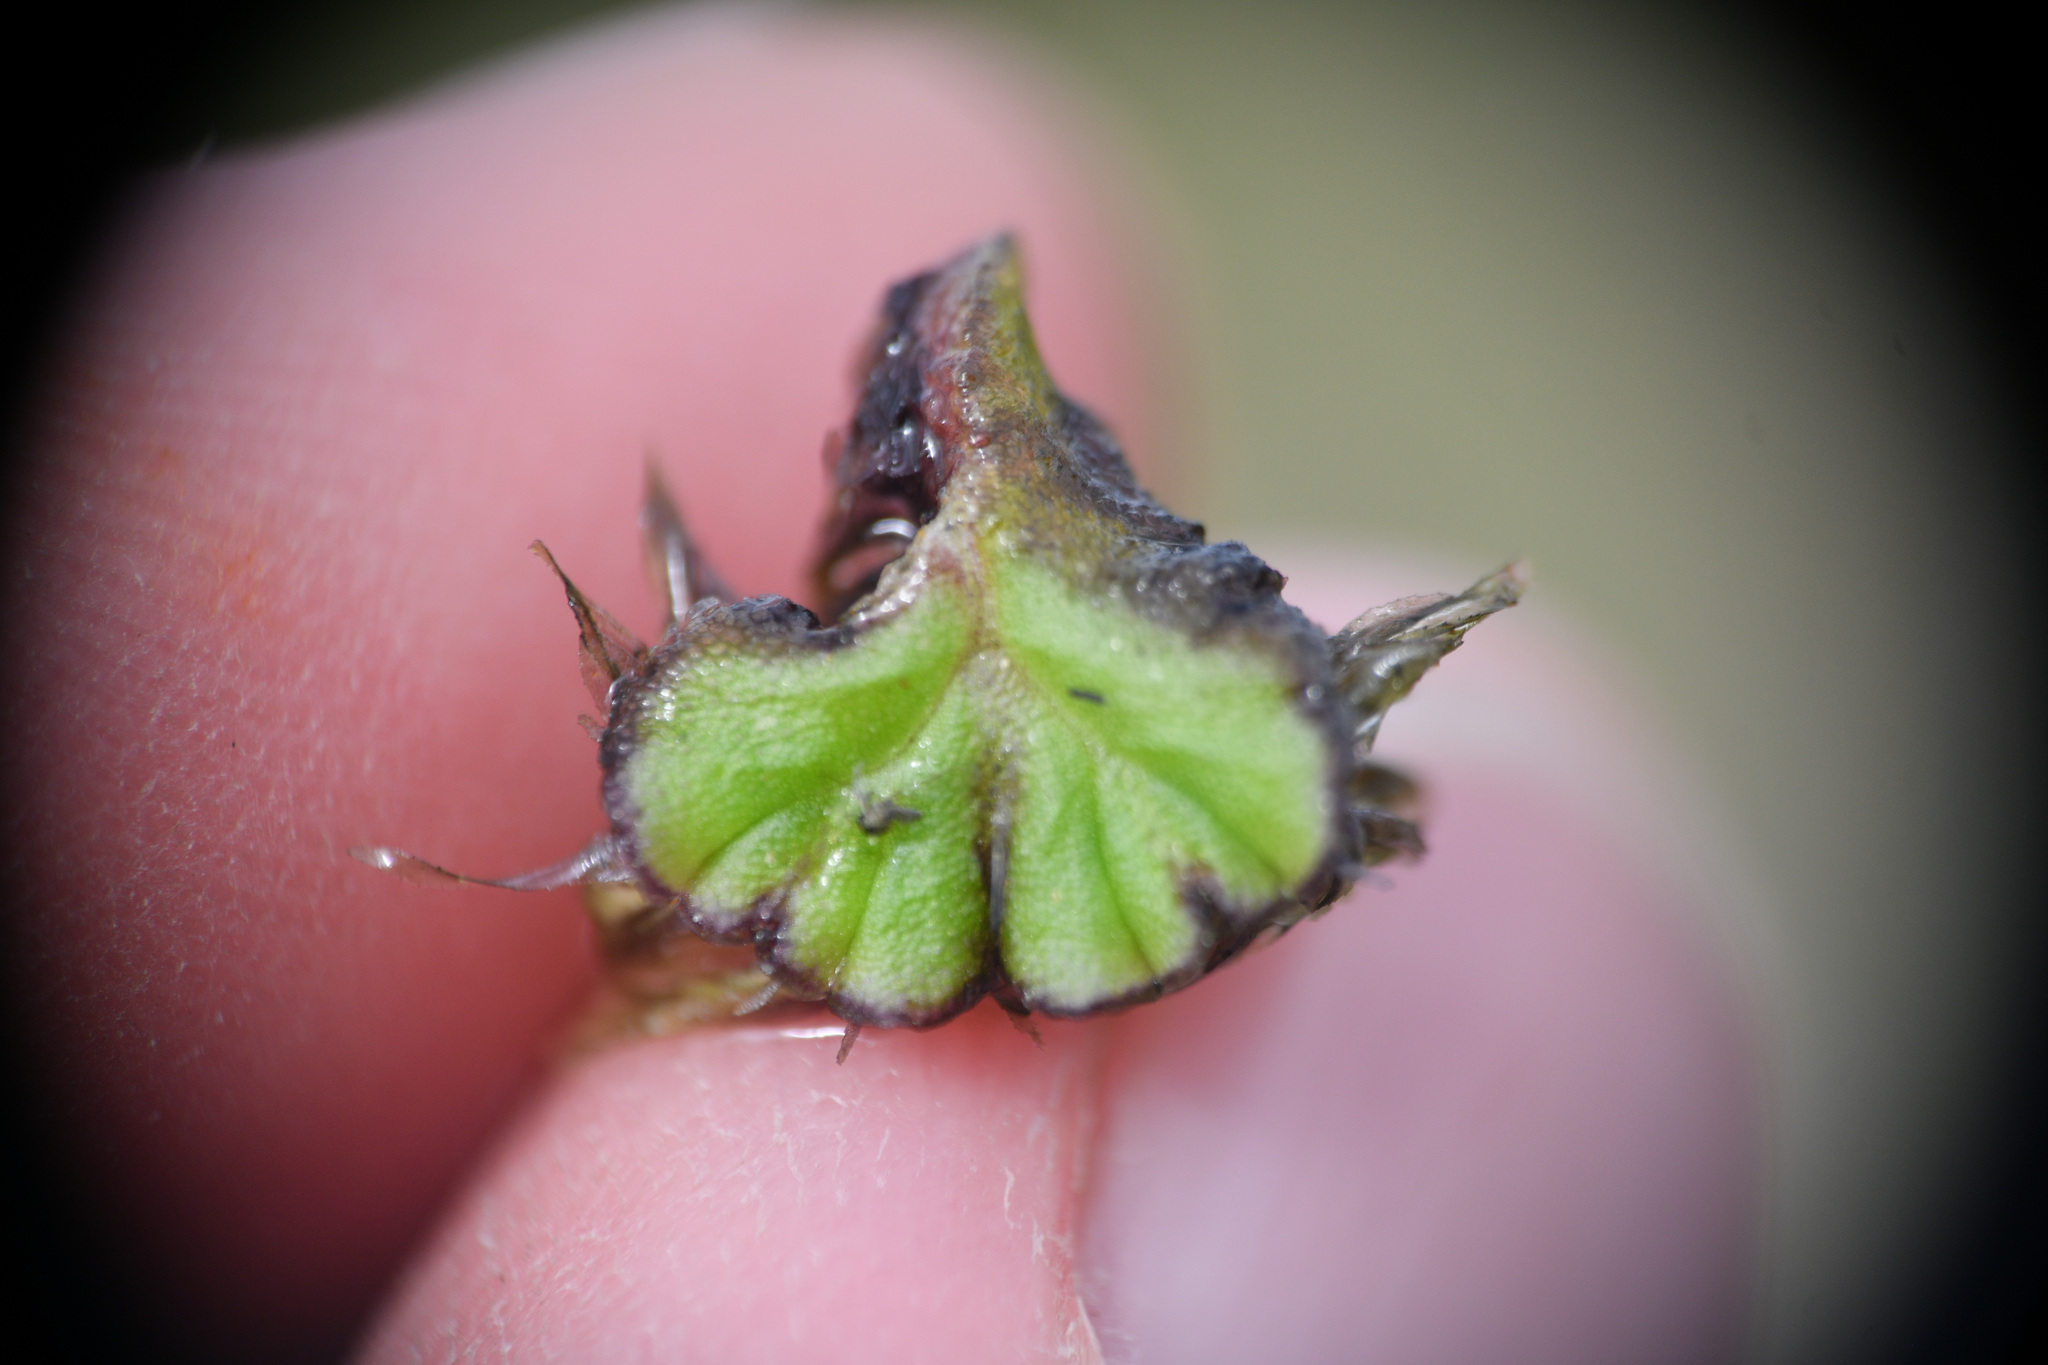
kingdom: Plantae
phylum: Marchantiophyta
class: Marchantiopsida
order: Marchantiales
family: Ricciaceae
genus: Ricciocarpos
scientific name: Ricciocarpos natans
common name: Purple-fringed liverwort
